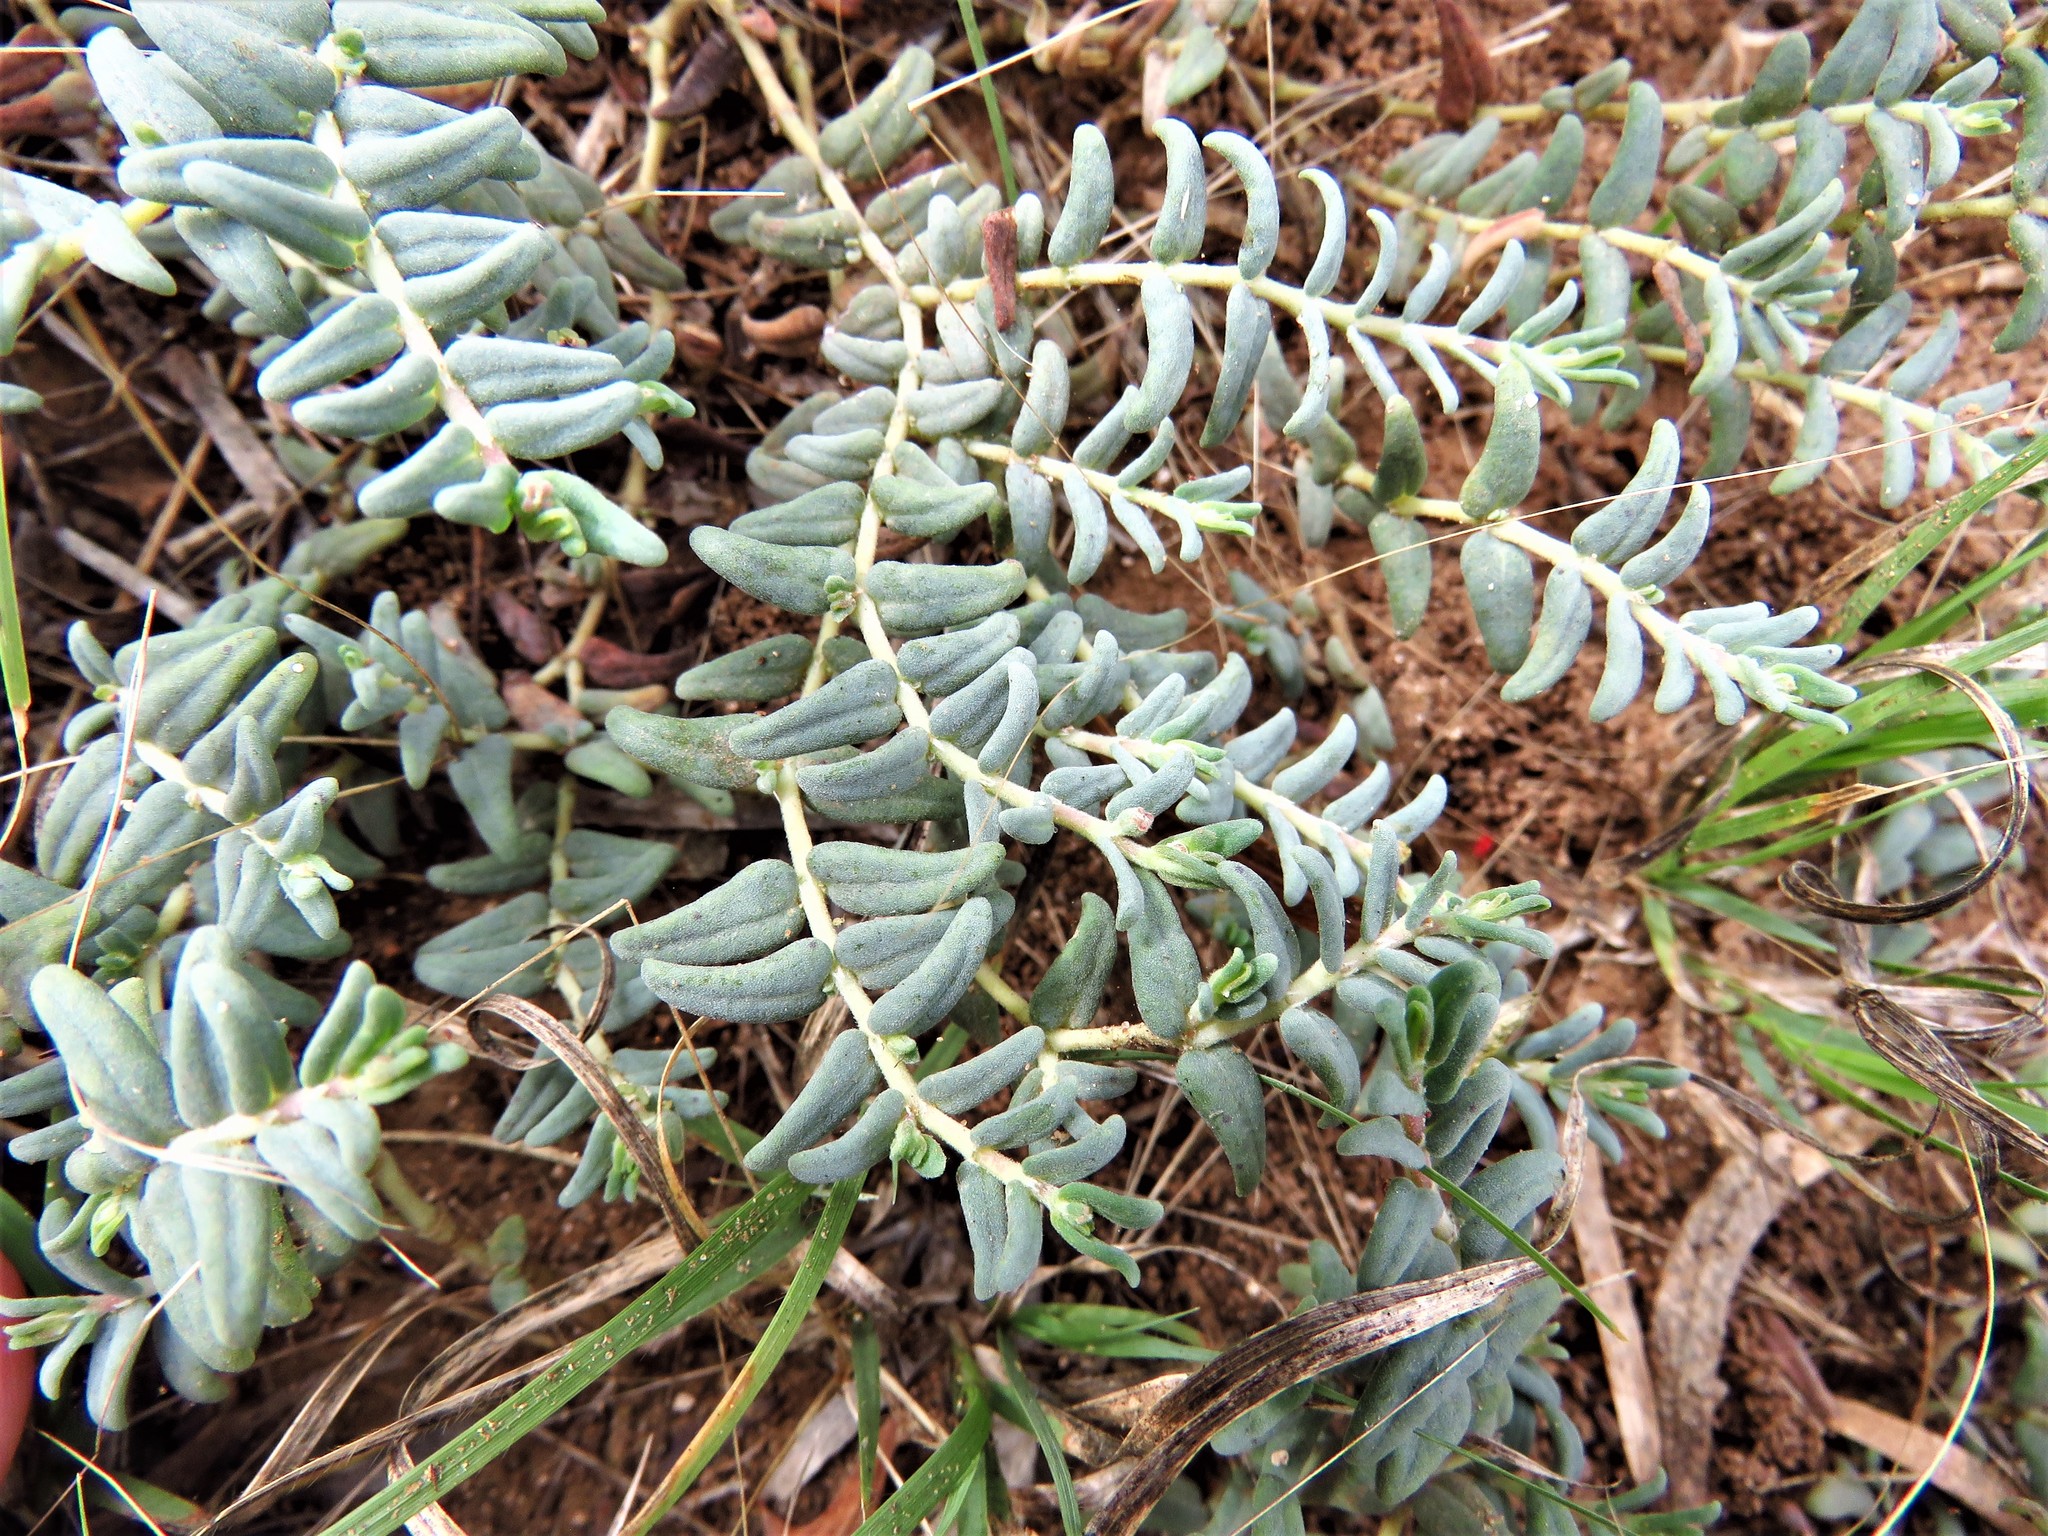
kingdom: Plantae
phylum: Tracheophyta
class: Magnoliopsida
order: Malpighiales
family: Euphorbiaceae
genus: Euphorbia
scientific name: Euphorbia lata
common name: Hoary euphorbia
